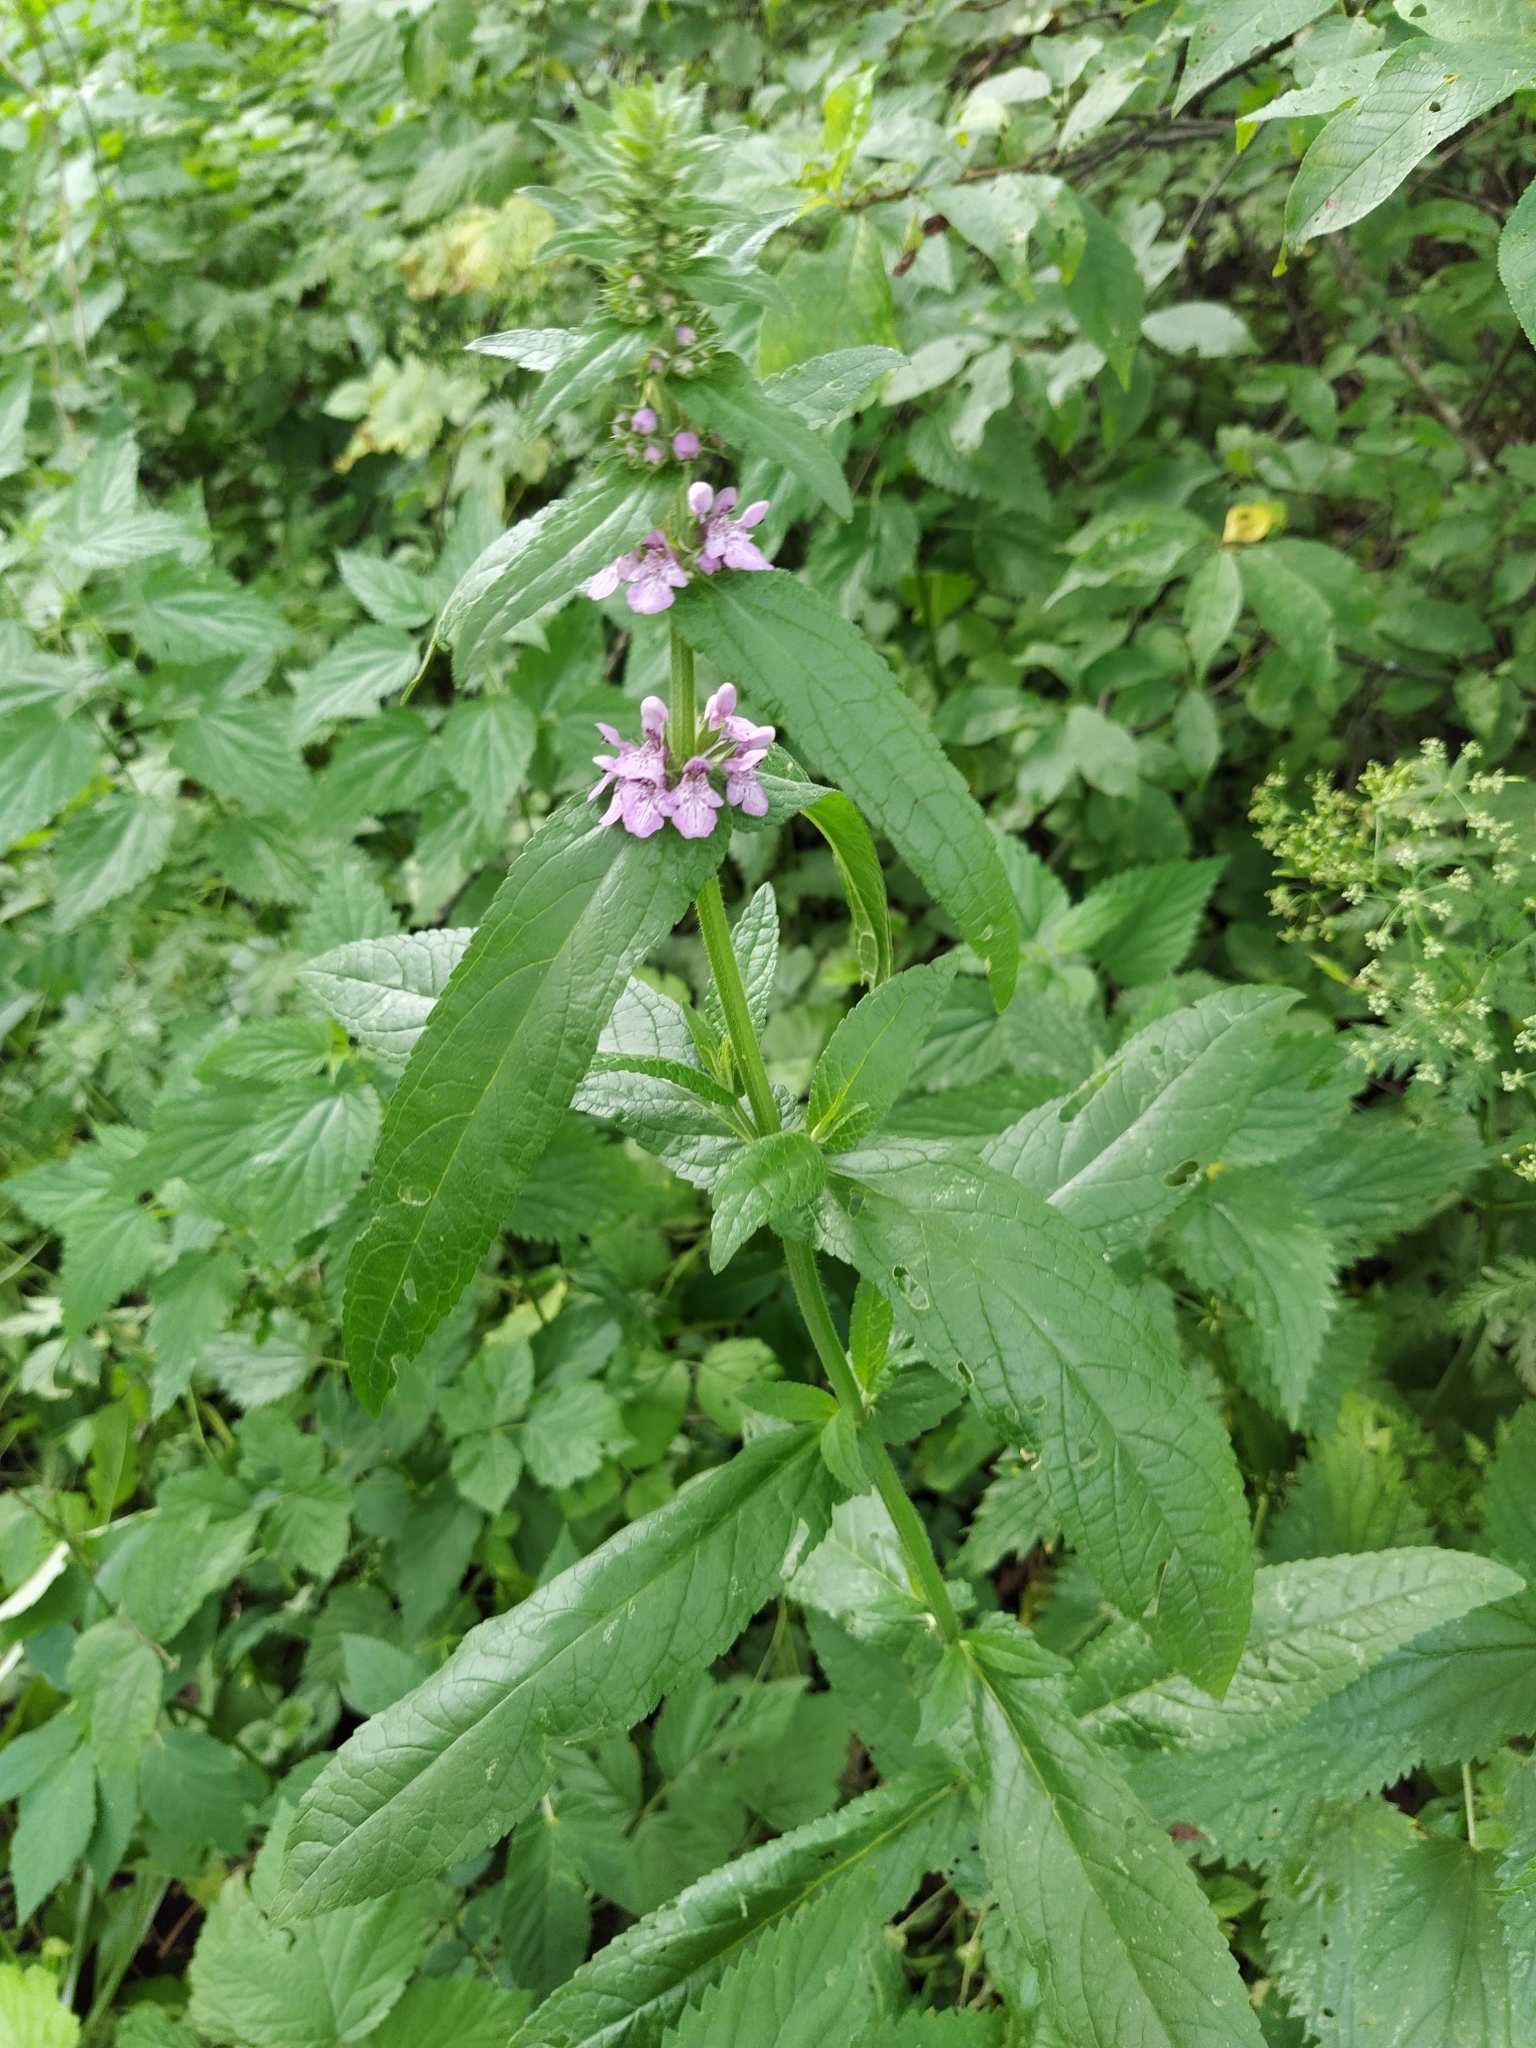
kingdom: Plantae
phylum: Tracheophyta
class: Magnoliopsida
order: Lamiales
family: Lamiaceae
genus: Stachys
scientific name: Stachys palustris
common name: Marsh woundwort
